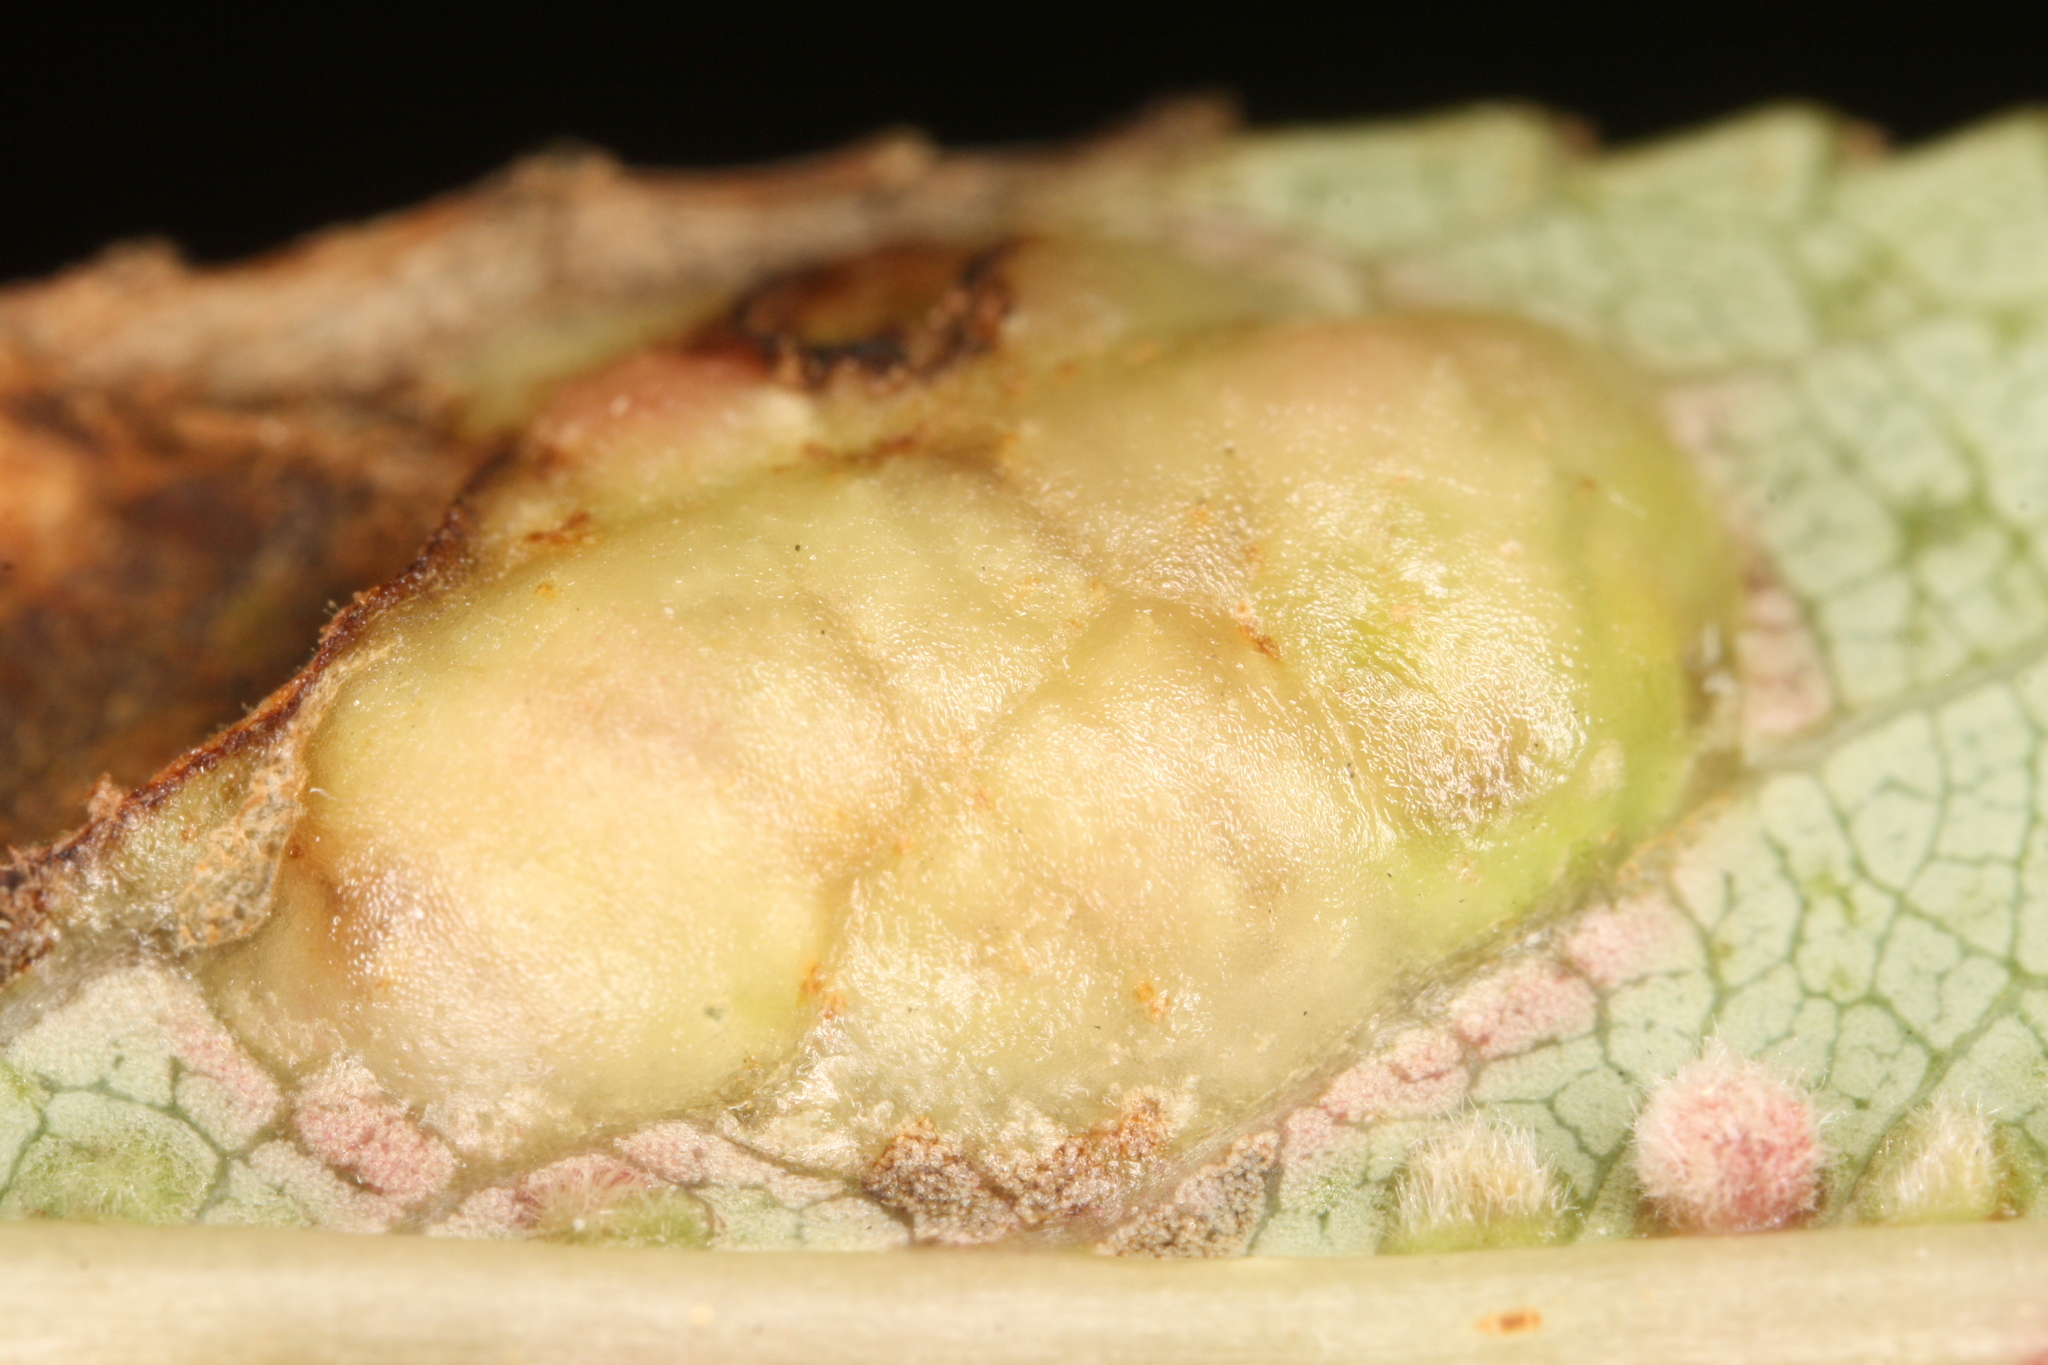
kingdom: Animalia
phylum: Arthropoda
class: Insecta
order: Hymenoptera
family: Tenthredinidae
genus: Pontania
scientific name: Pontania proxima
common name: Common sawfly
